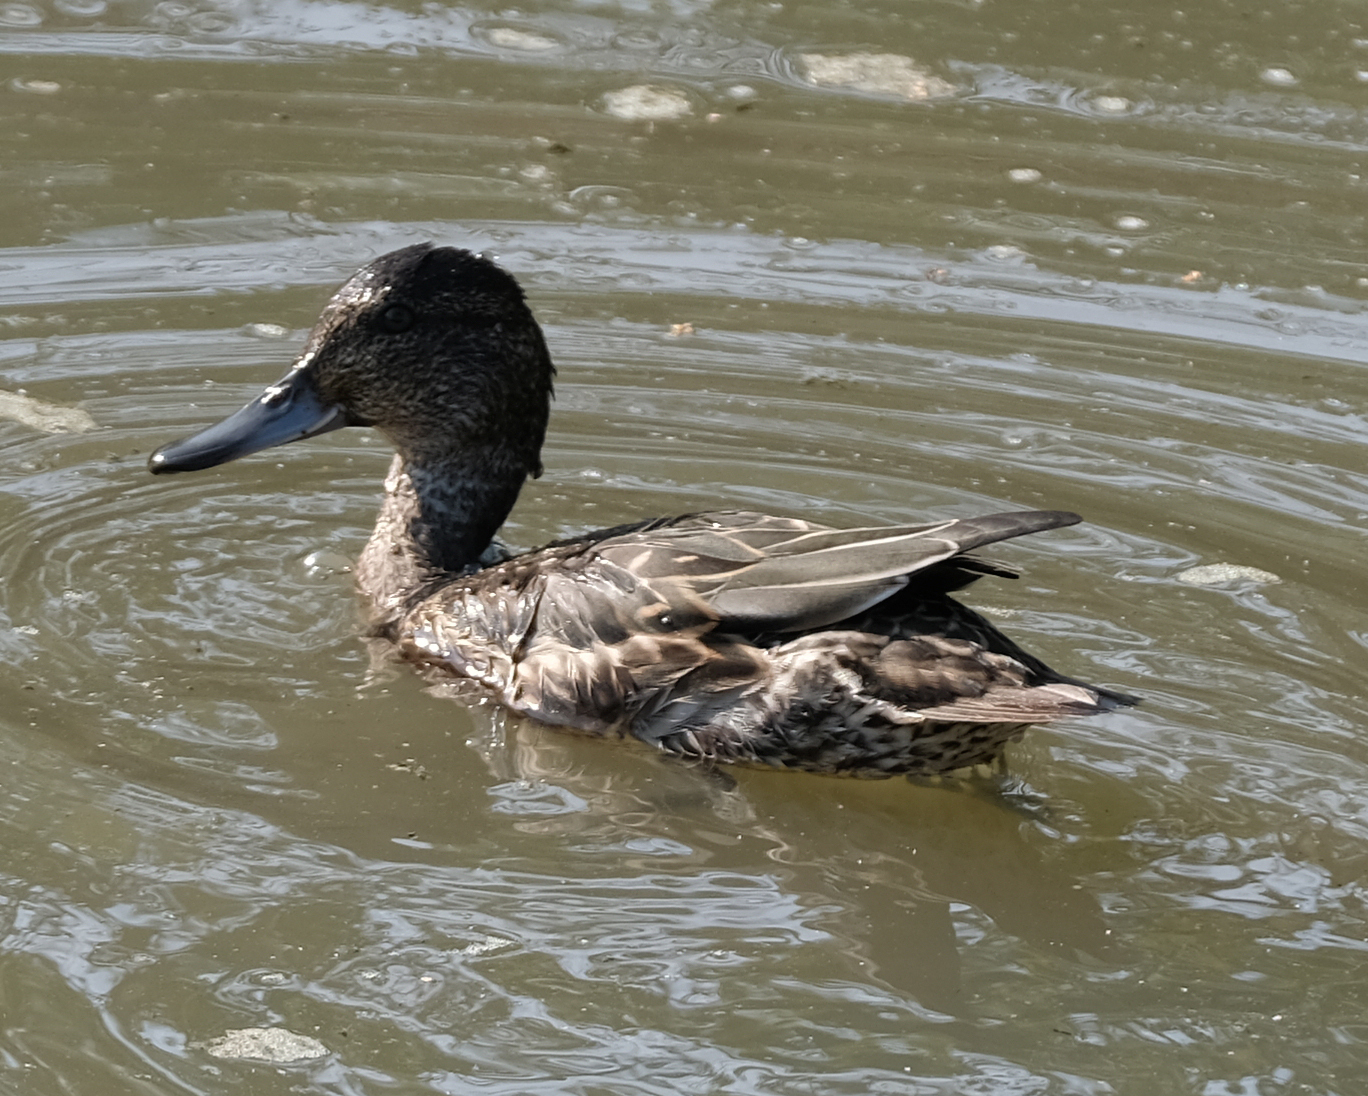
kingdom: Animalia
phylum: Chordata
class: Aves
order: Anseriformes
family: Anatidae
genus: Anas
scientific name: Anas crecca
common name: Eurasian teal
